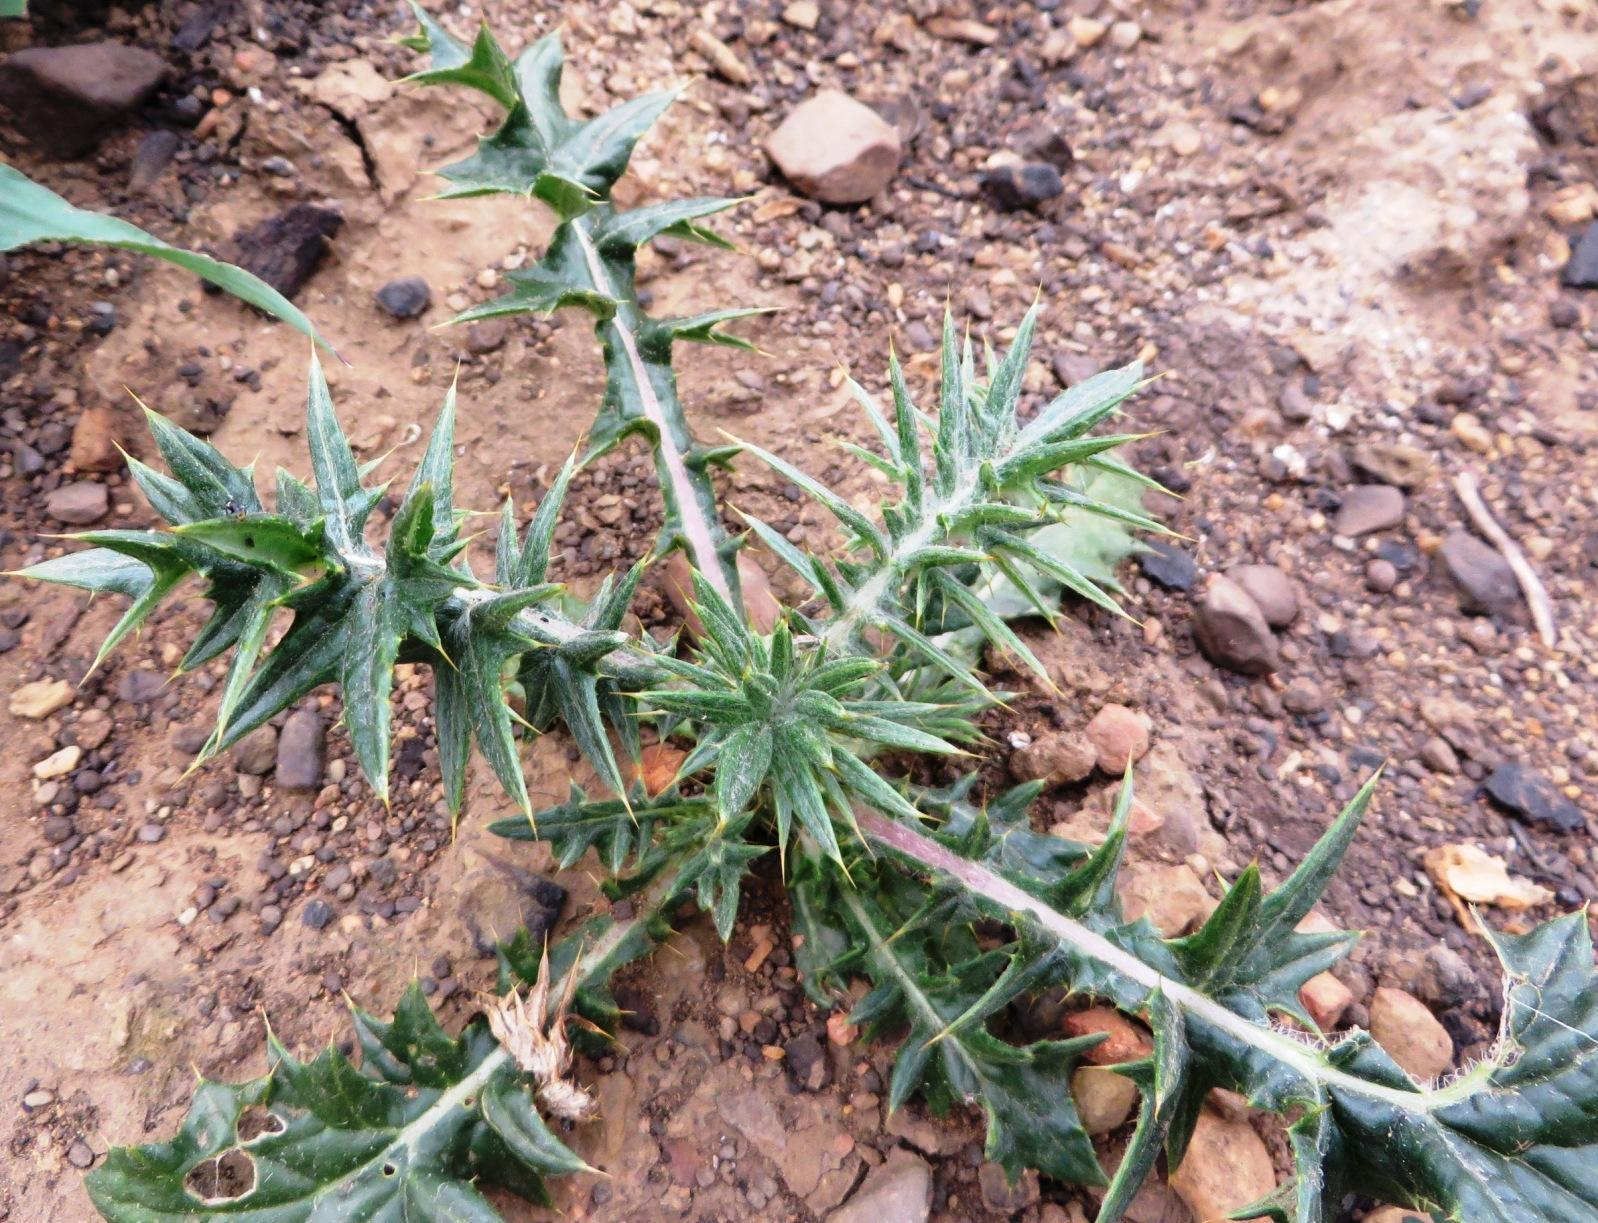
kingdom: Plantae
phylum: Tracheophyta
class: Magnoliopsida
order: Asterales
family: Asteraceae
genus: Berkheya
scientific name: Berkheya rigida
